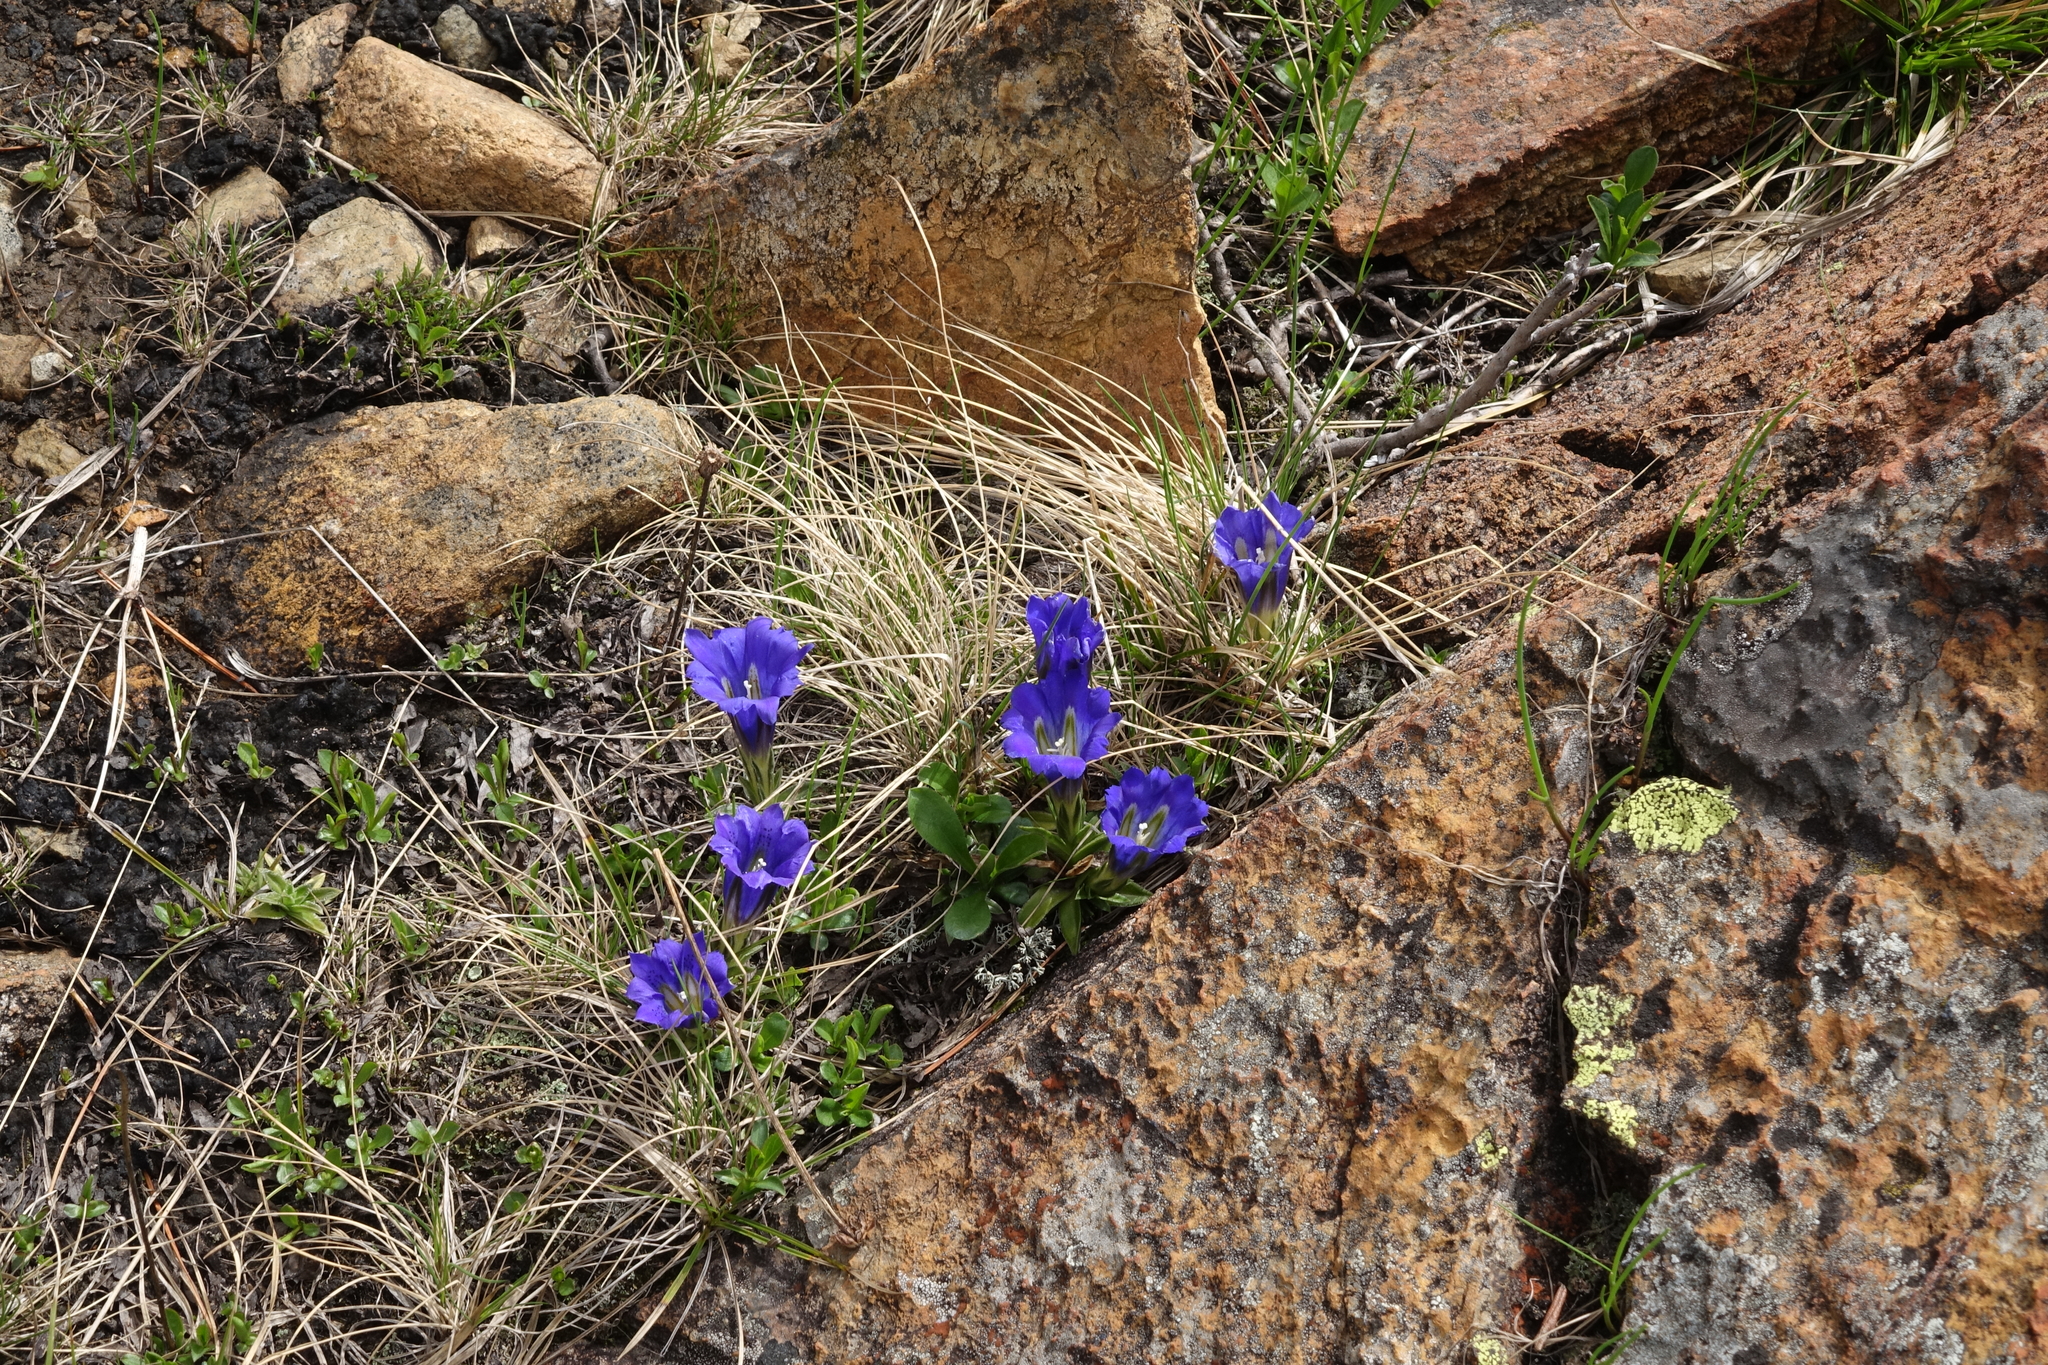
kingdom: Plantae
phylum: Tracheophyta
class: Magnoliopsida
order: Gentianales
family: Gentianaceae
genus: Gentiana
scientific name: Gentiana grandiflora
